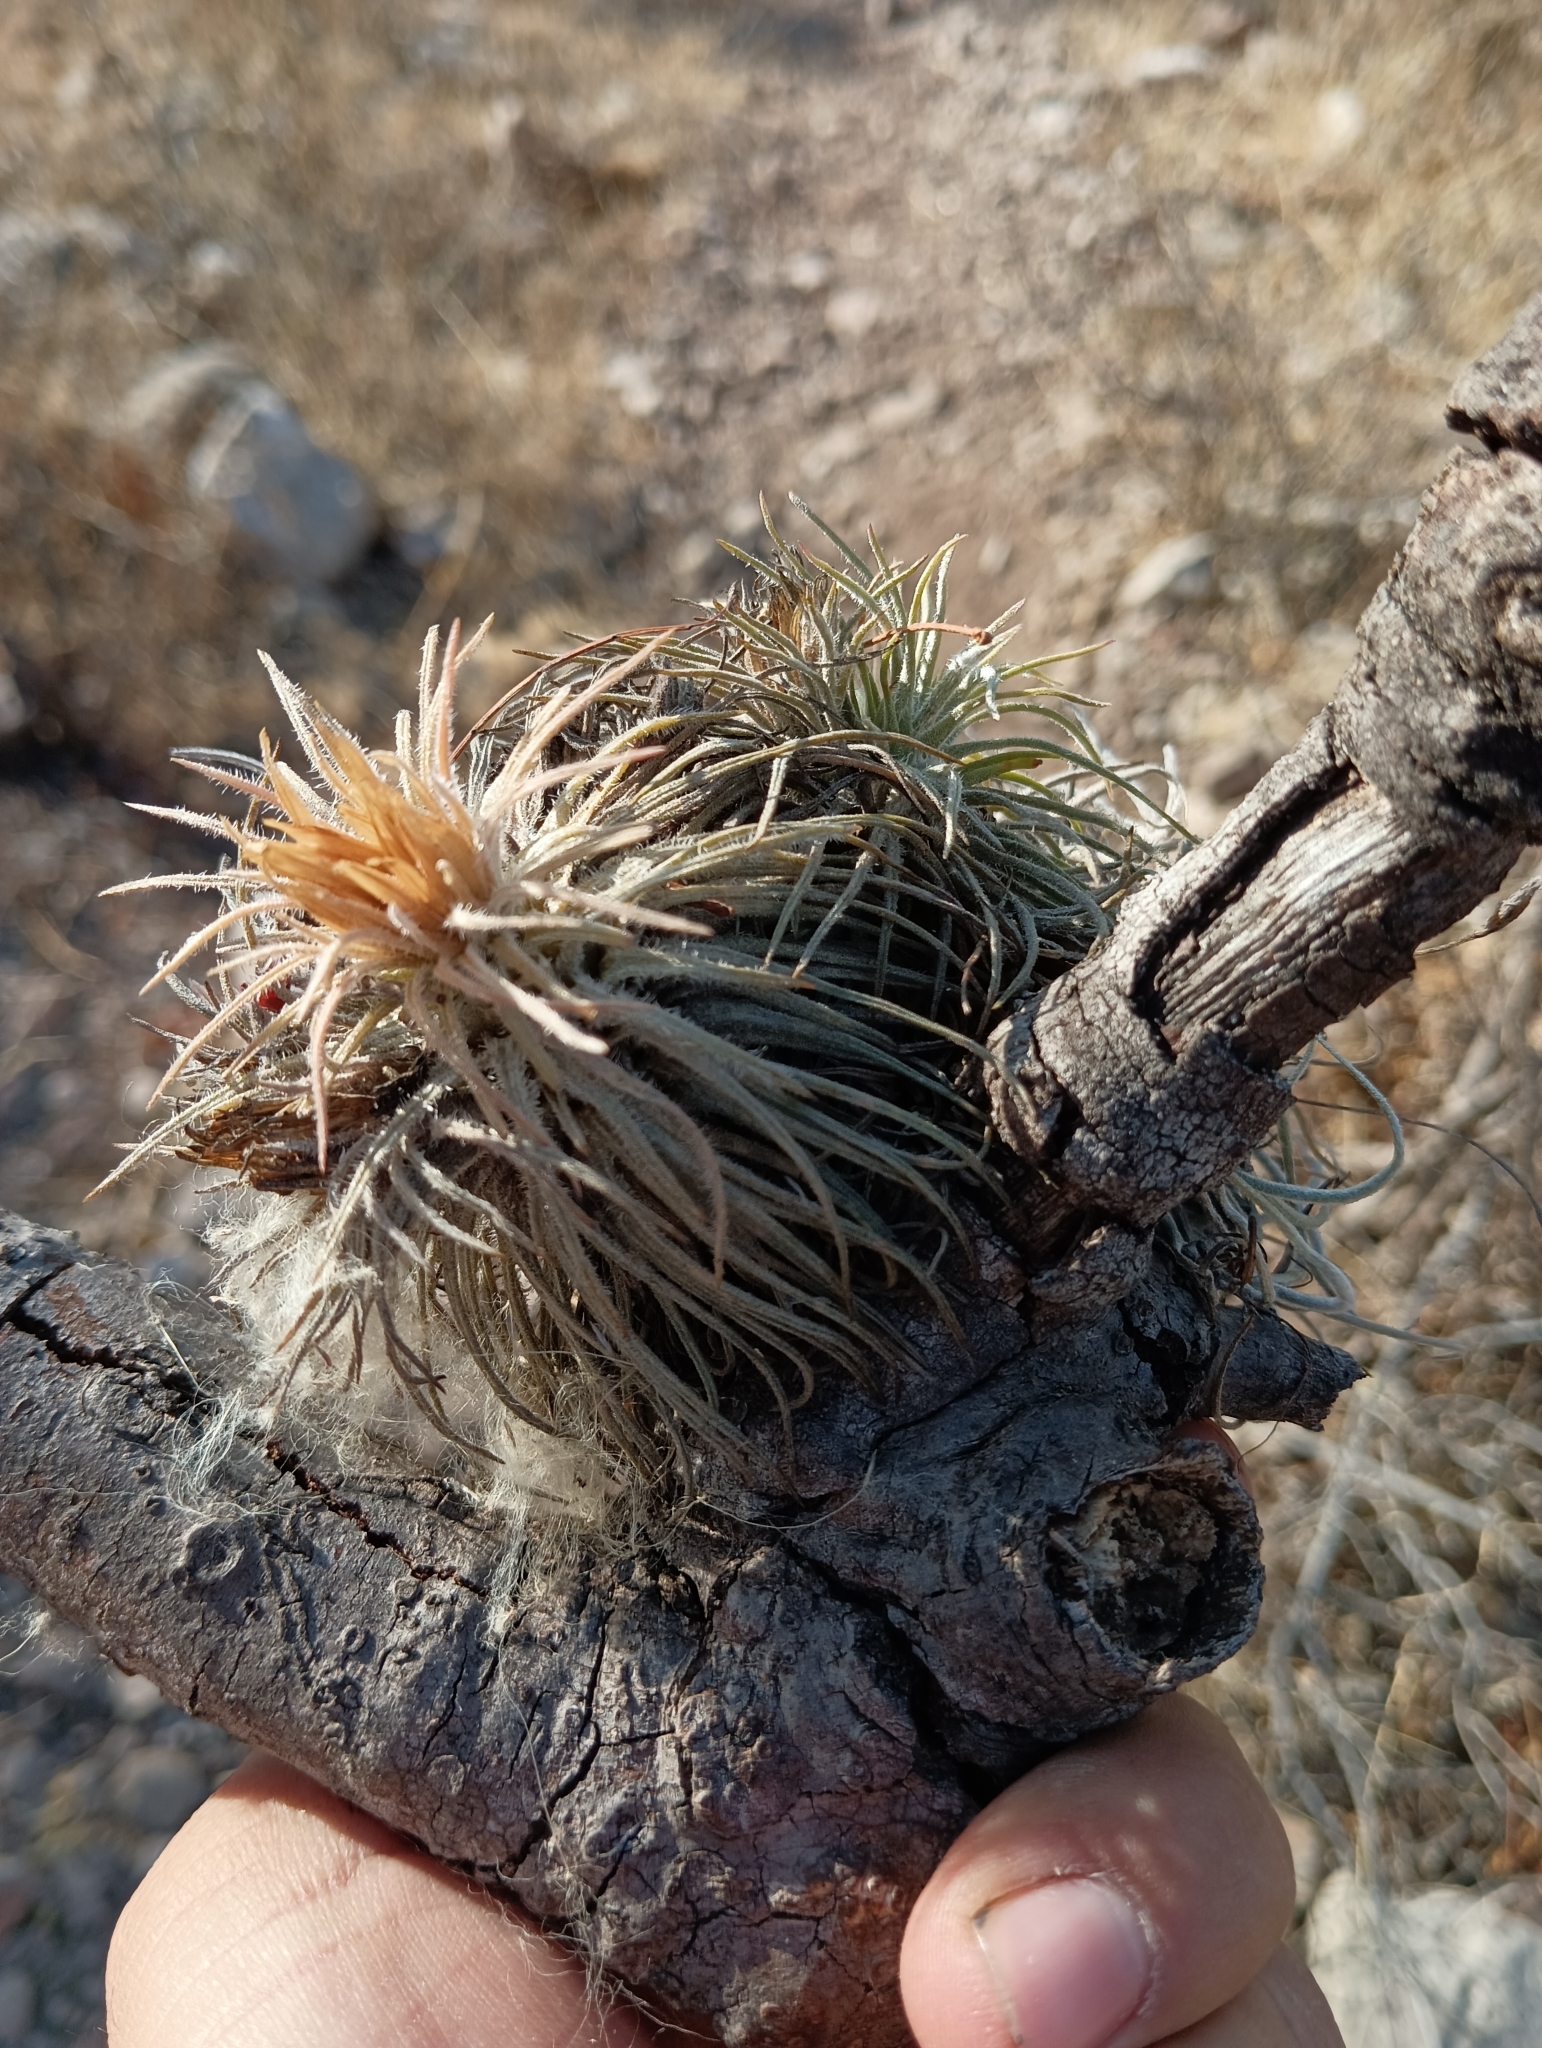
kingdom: Plantae
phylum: Tracheophyta
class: Liliopsida
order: Poales
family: Bromeliaceae
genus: Tillandsia
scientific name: Tillandsia atroviridipetala
